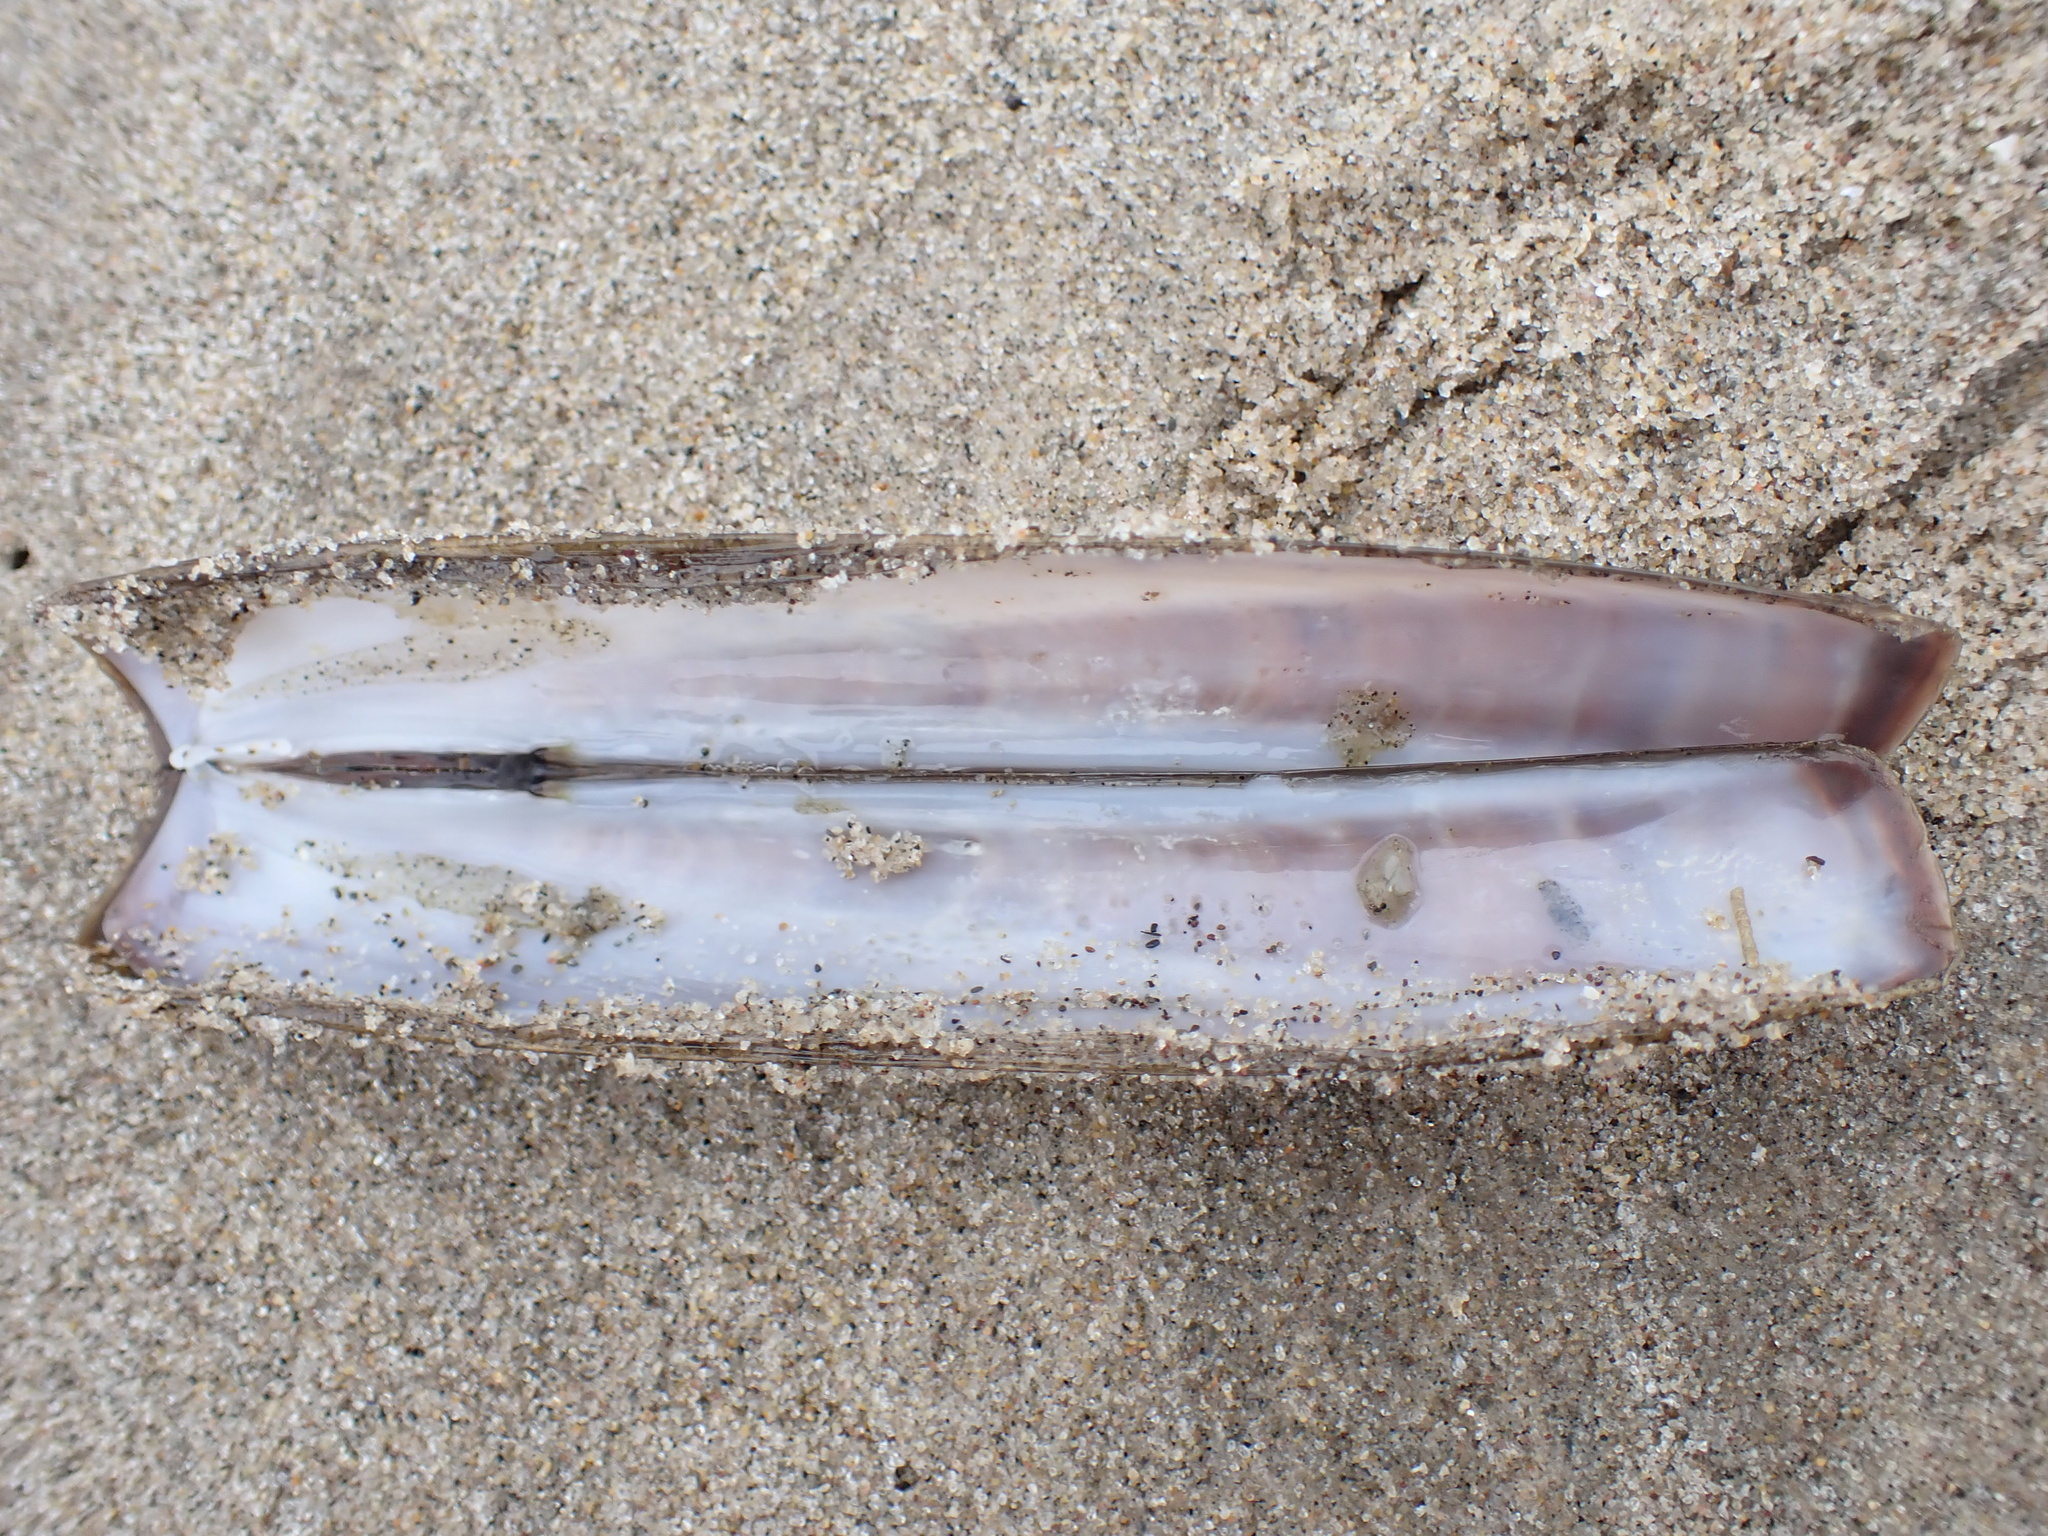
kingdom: Animalia
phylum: Mollusca
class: Bivalvia
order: Adapedonta
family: Pharidae
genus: Ensis
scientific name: Ensis leei
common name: American jack knife clam
